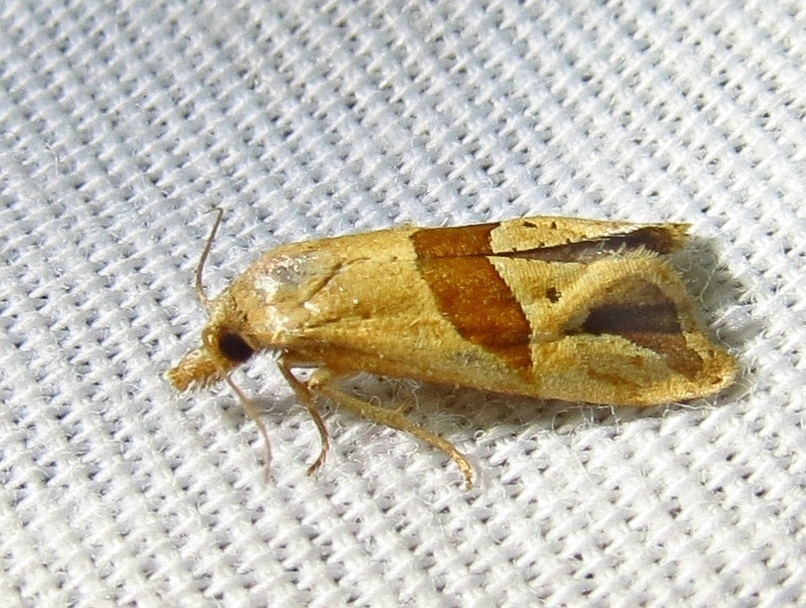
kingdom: Animalia
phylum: Arthropoda
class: Insecta
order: Lepidoptera
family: Tortricidae
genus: Eugnosta
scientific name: Eugnosta sartana
